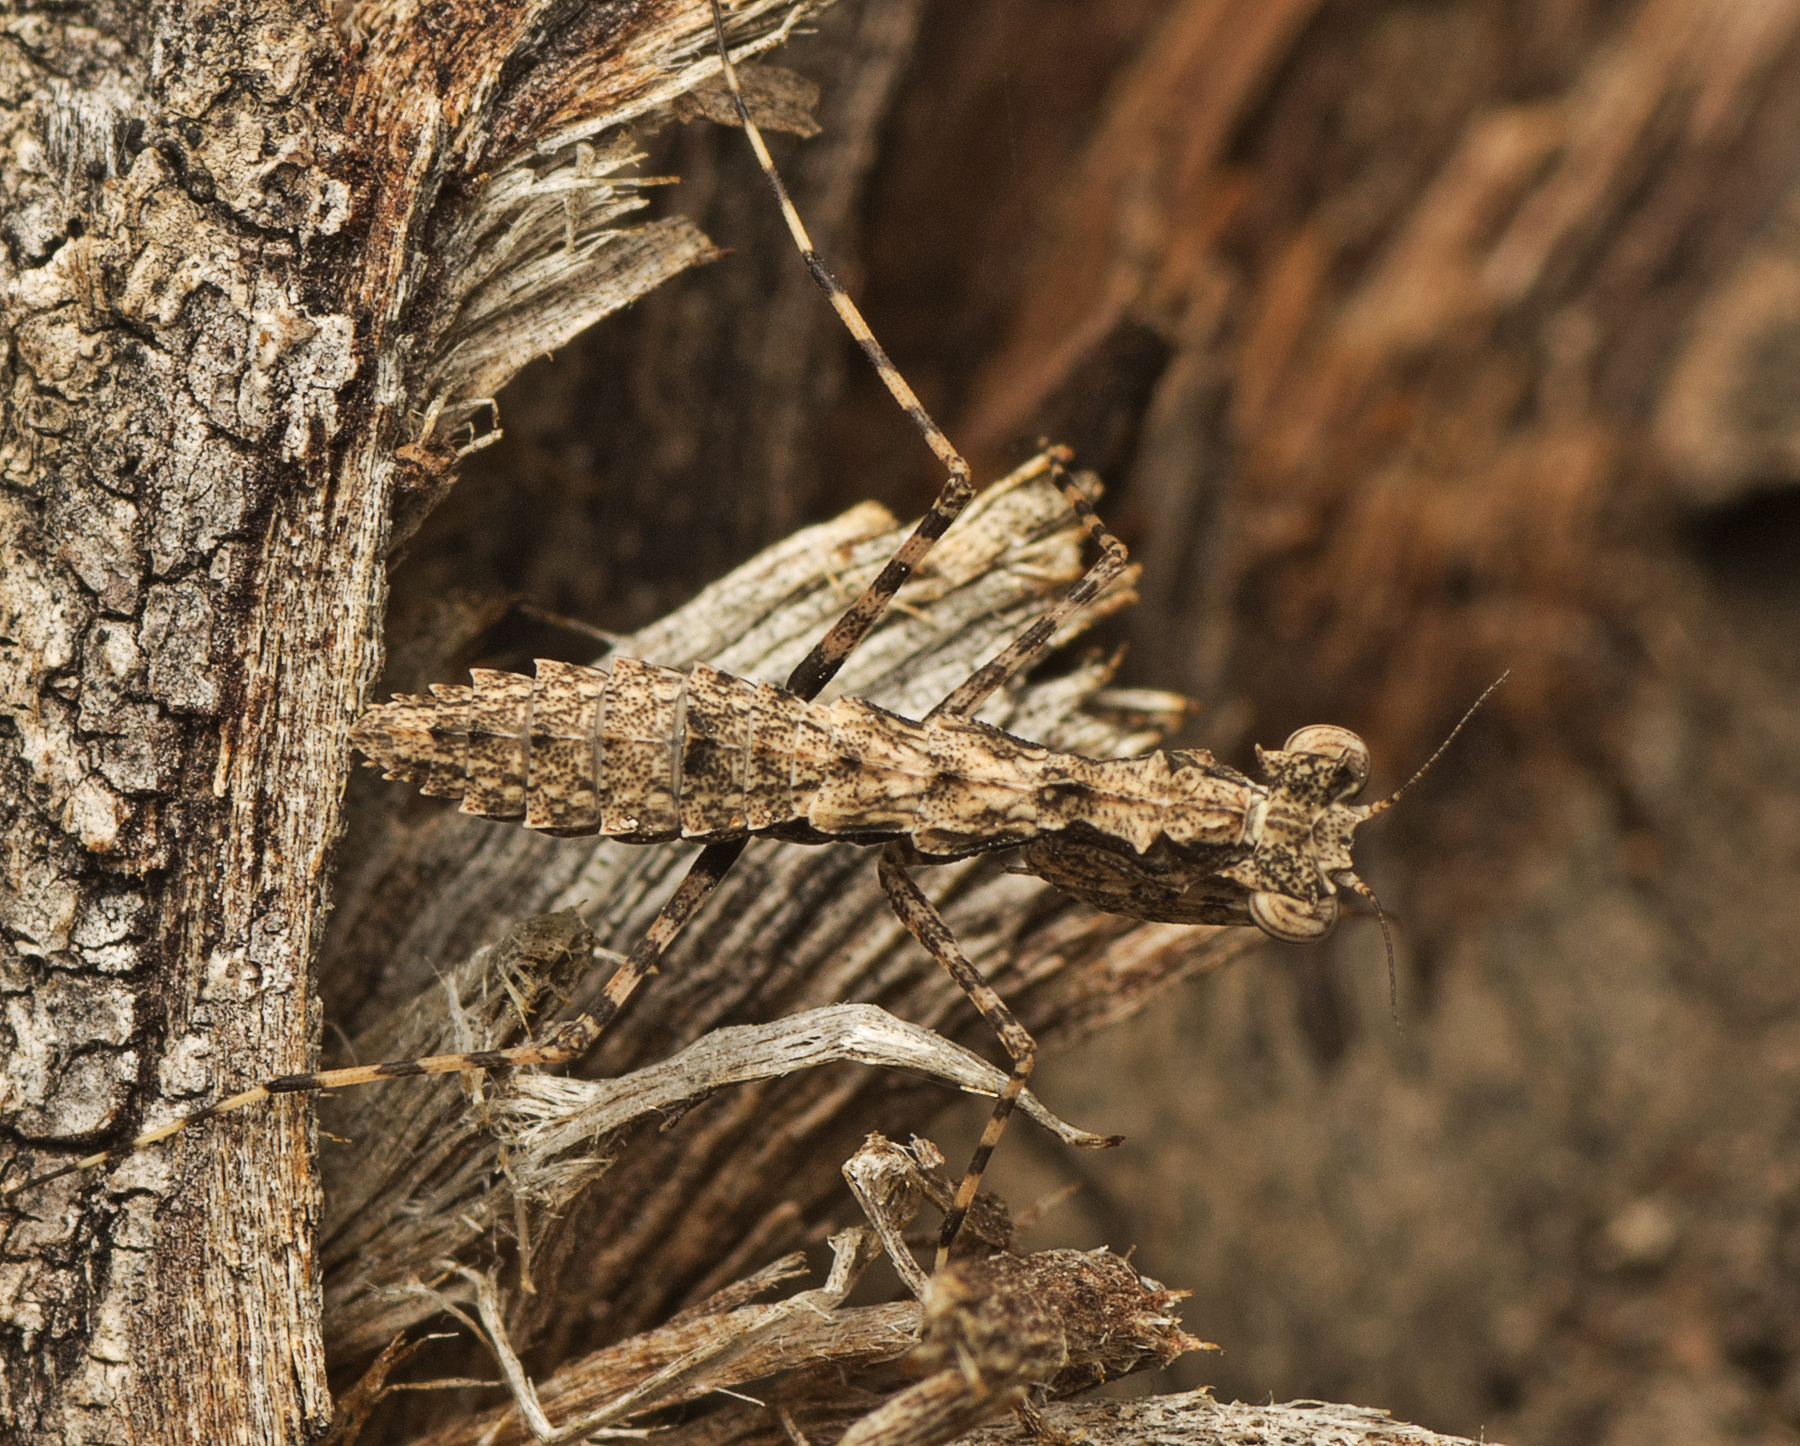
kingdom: Animalia
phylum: Arthropoda
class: Insecta
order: Mantodea
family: Nanomantidae
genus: Gyromantis
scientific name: Gyromantis occidentalis
